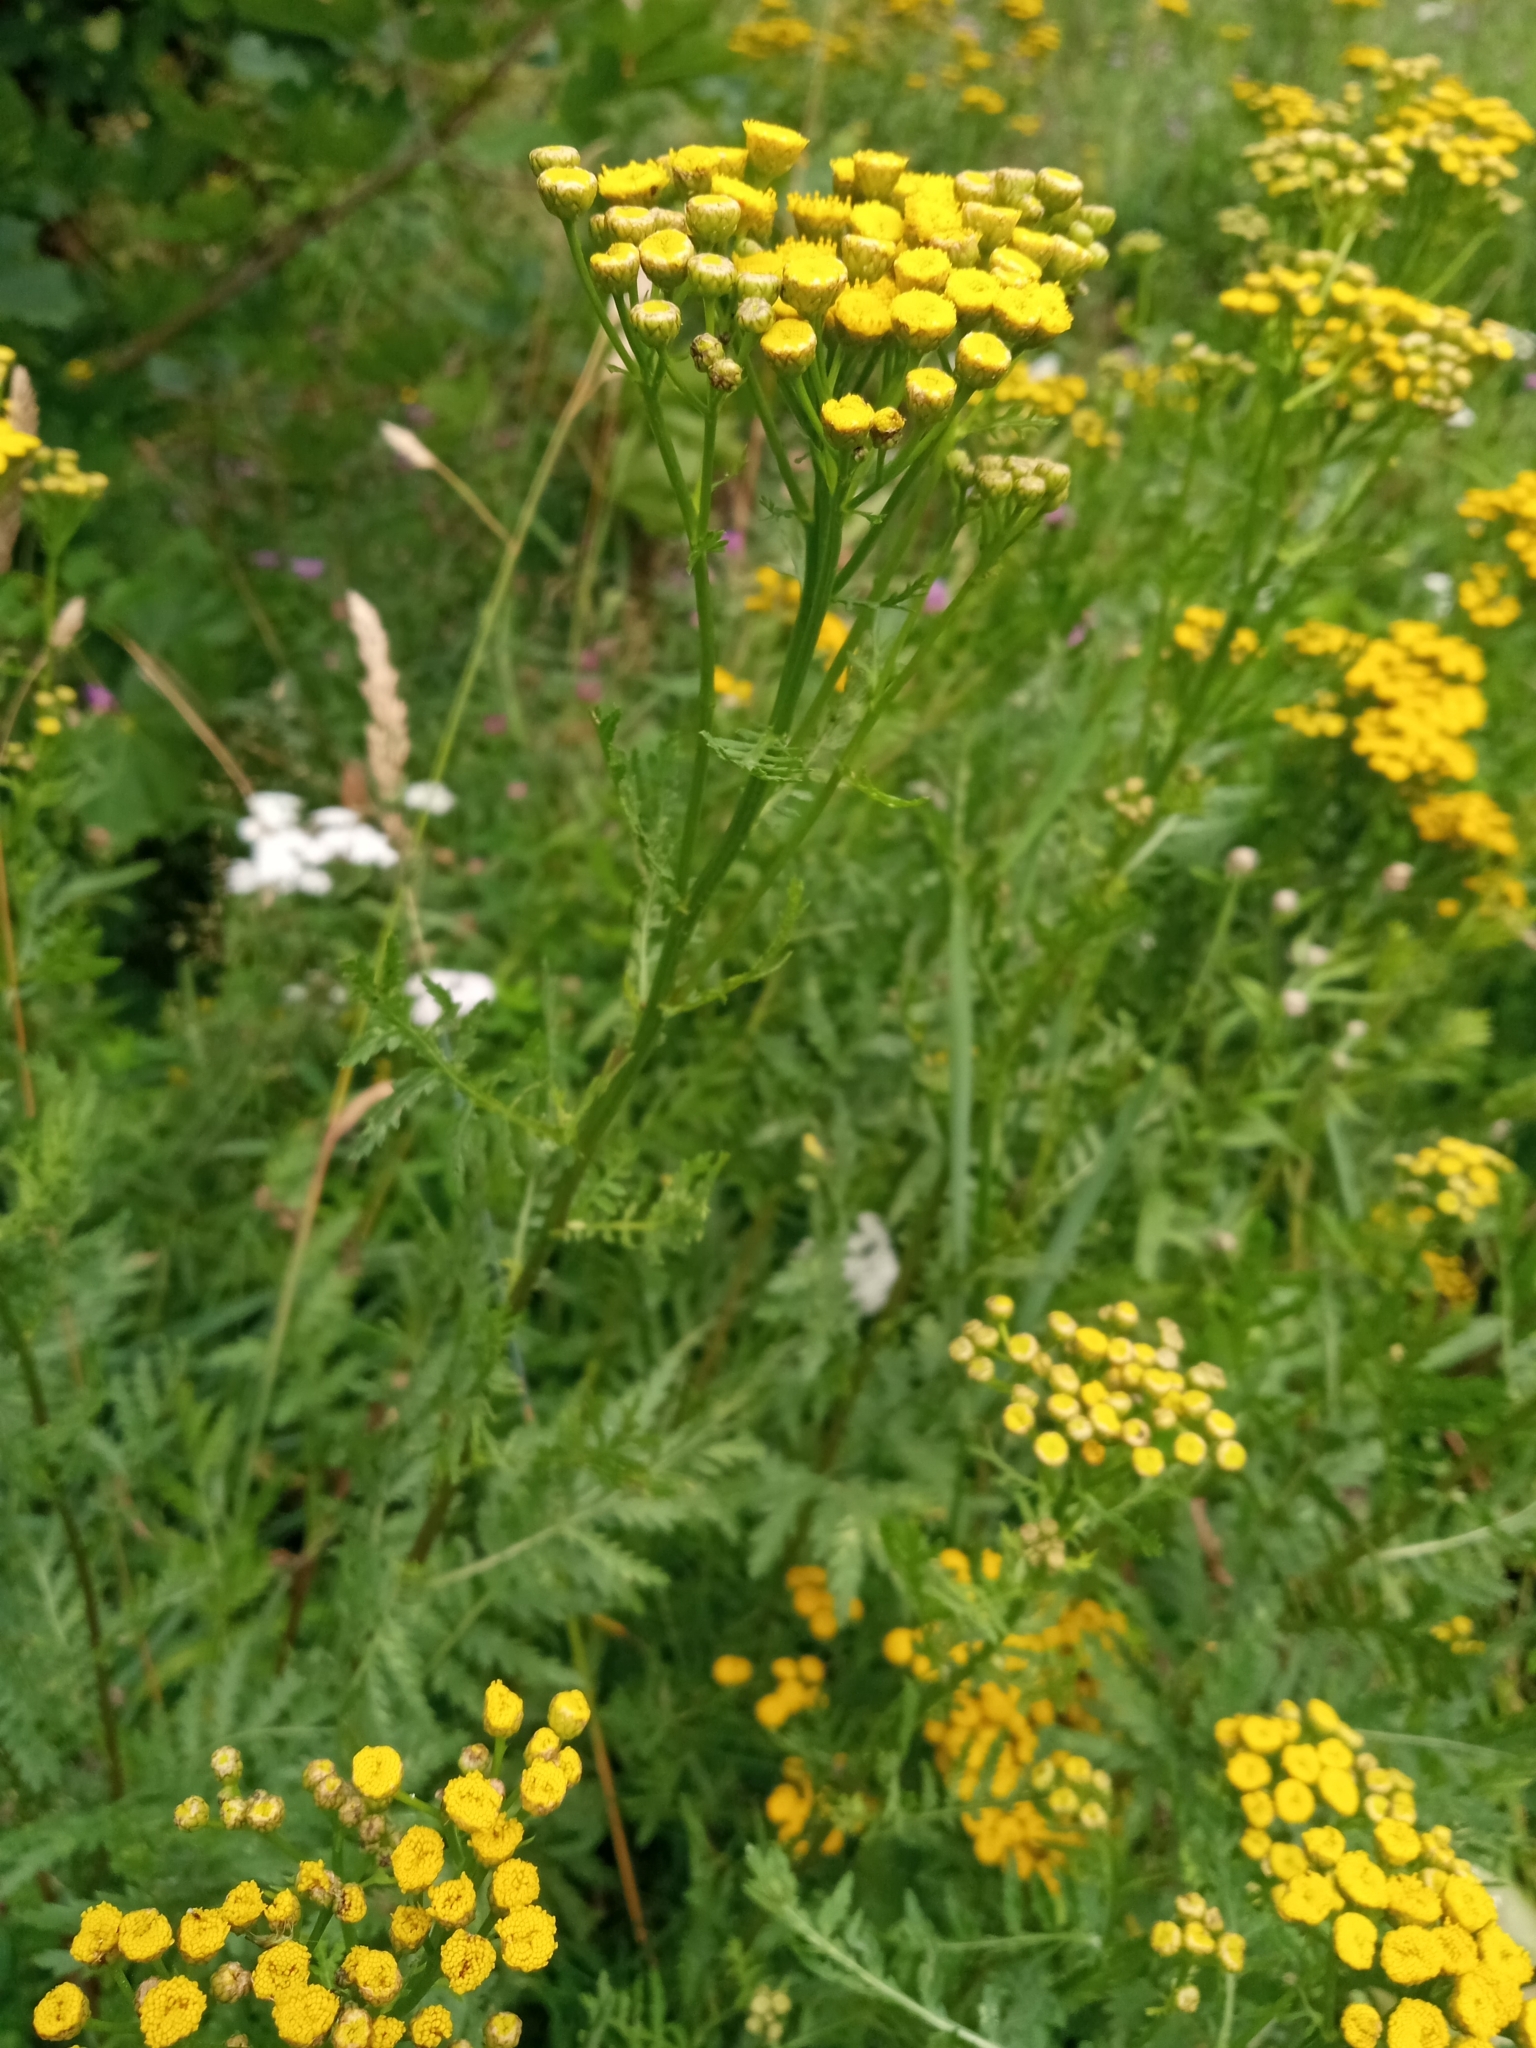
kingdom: Plantae
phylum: Tracheophyta
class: Magnoliopsida
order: Asterales
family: Asteraceae
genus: Tanacetum
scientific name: Tanacetum vulgare
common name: Common tansy
